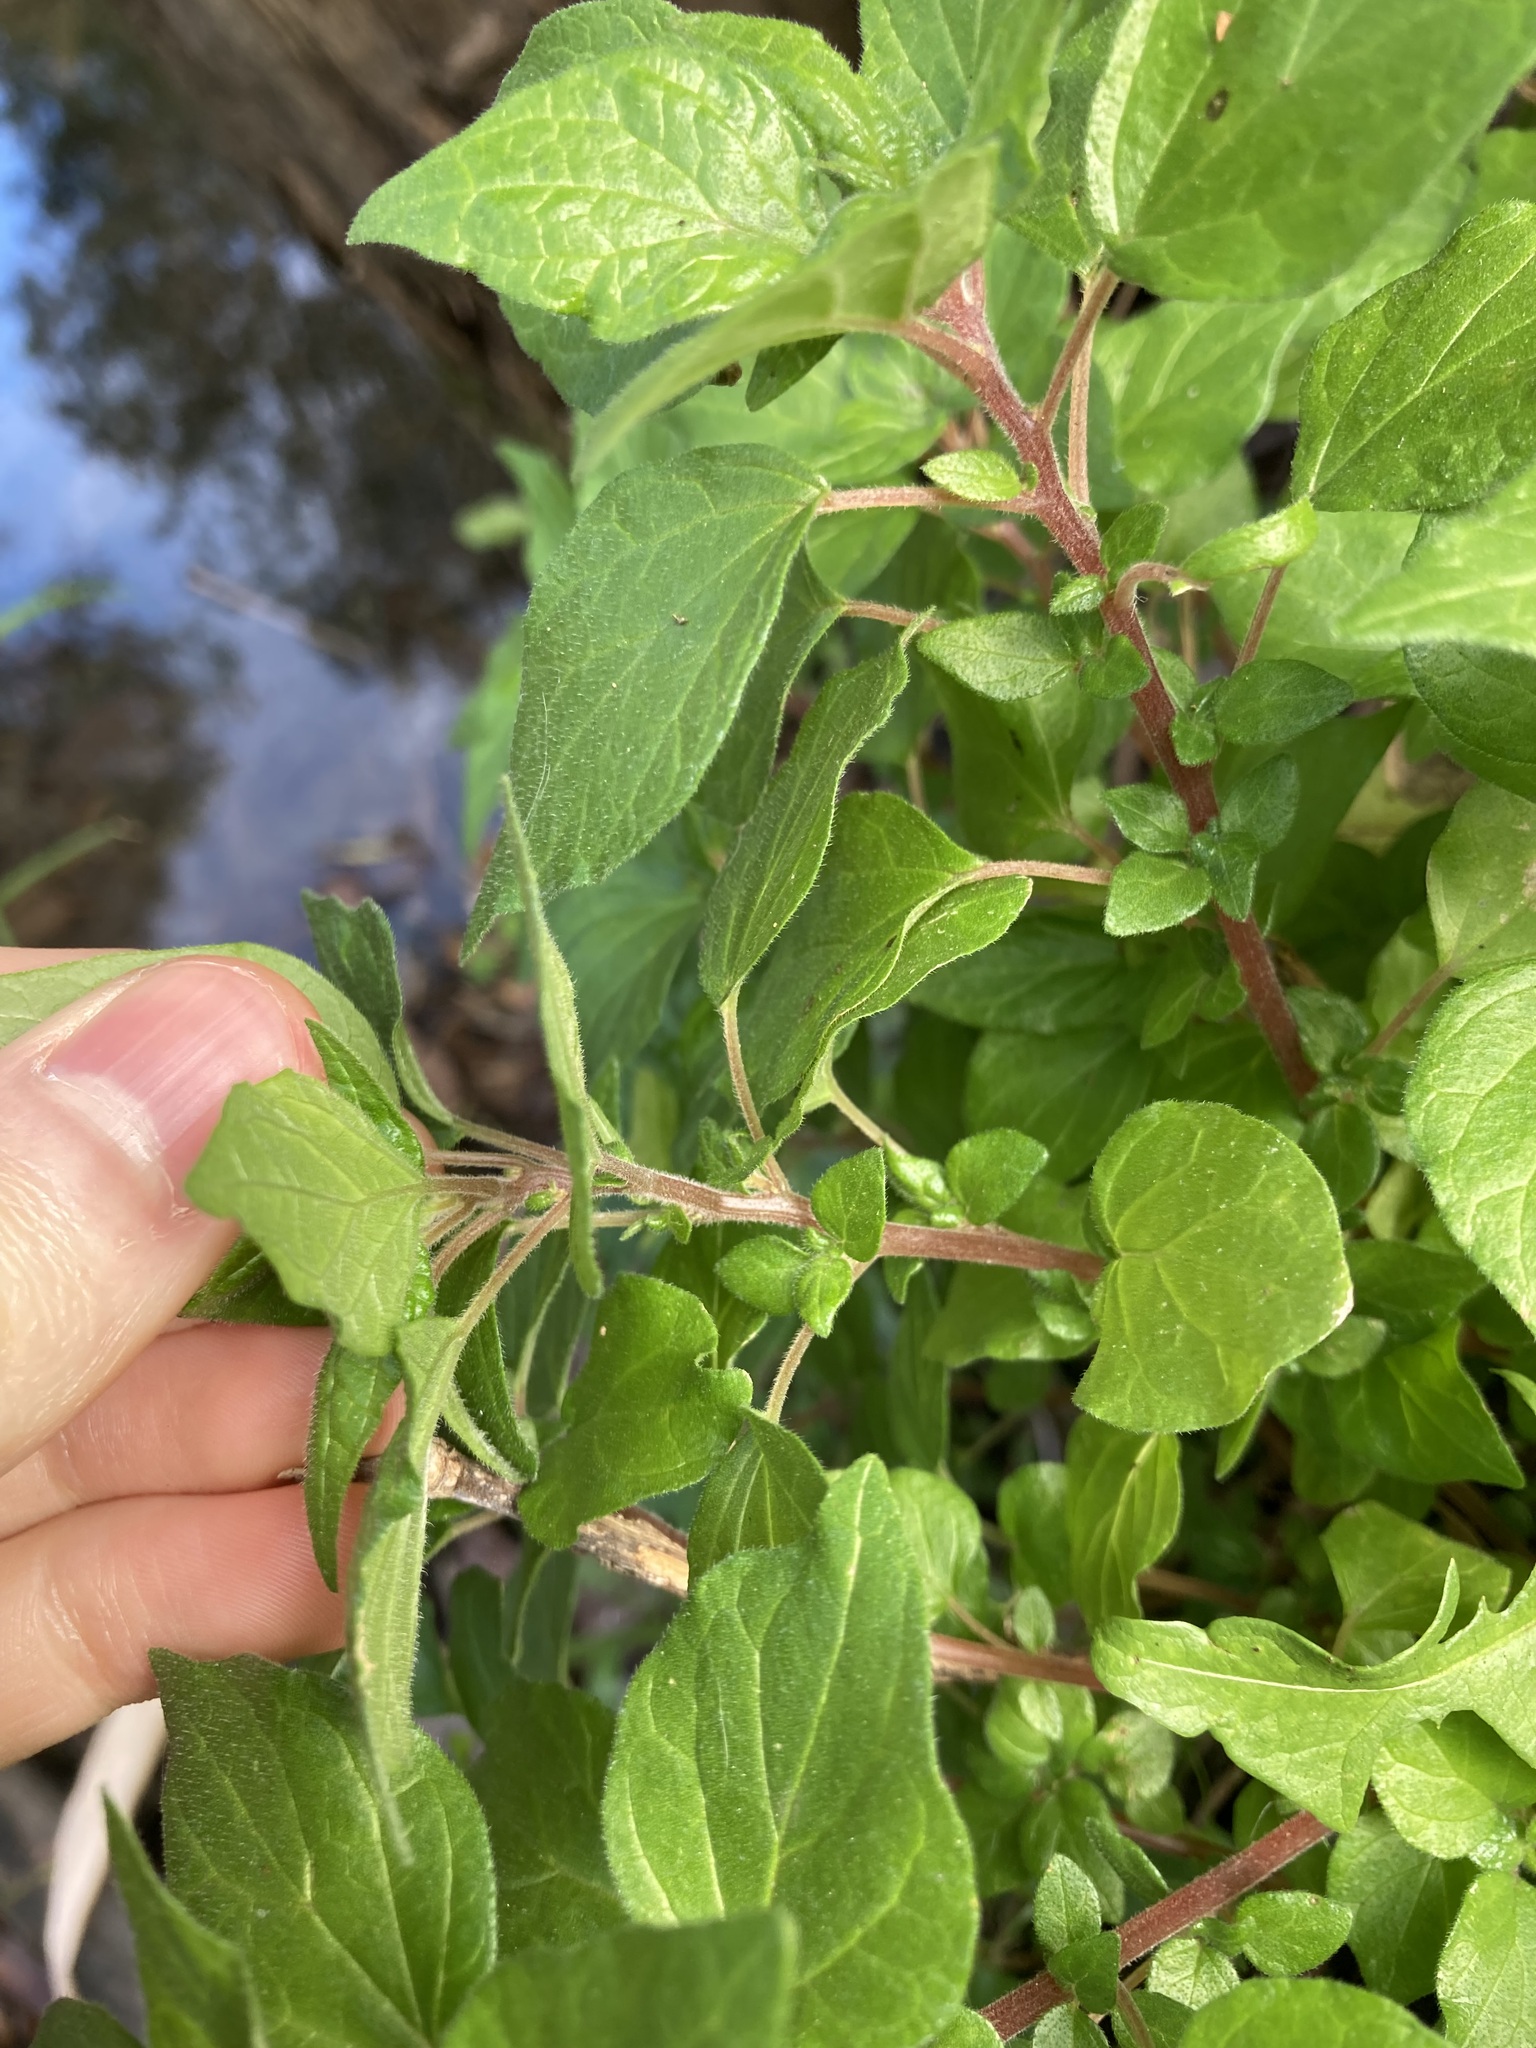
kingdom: Plantae
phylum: Tracheophyta
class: Magnoliopsida
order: Rosales
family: Urticaceae
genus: Parietaria
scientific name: Parietaria judaica
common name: Pellitory-of-the-wall
